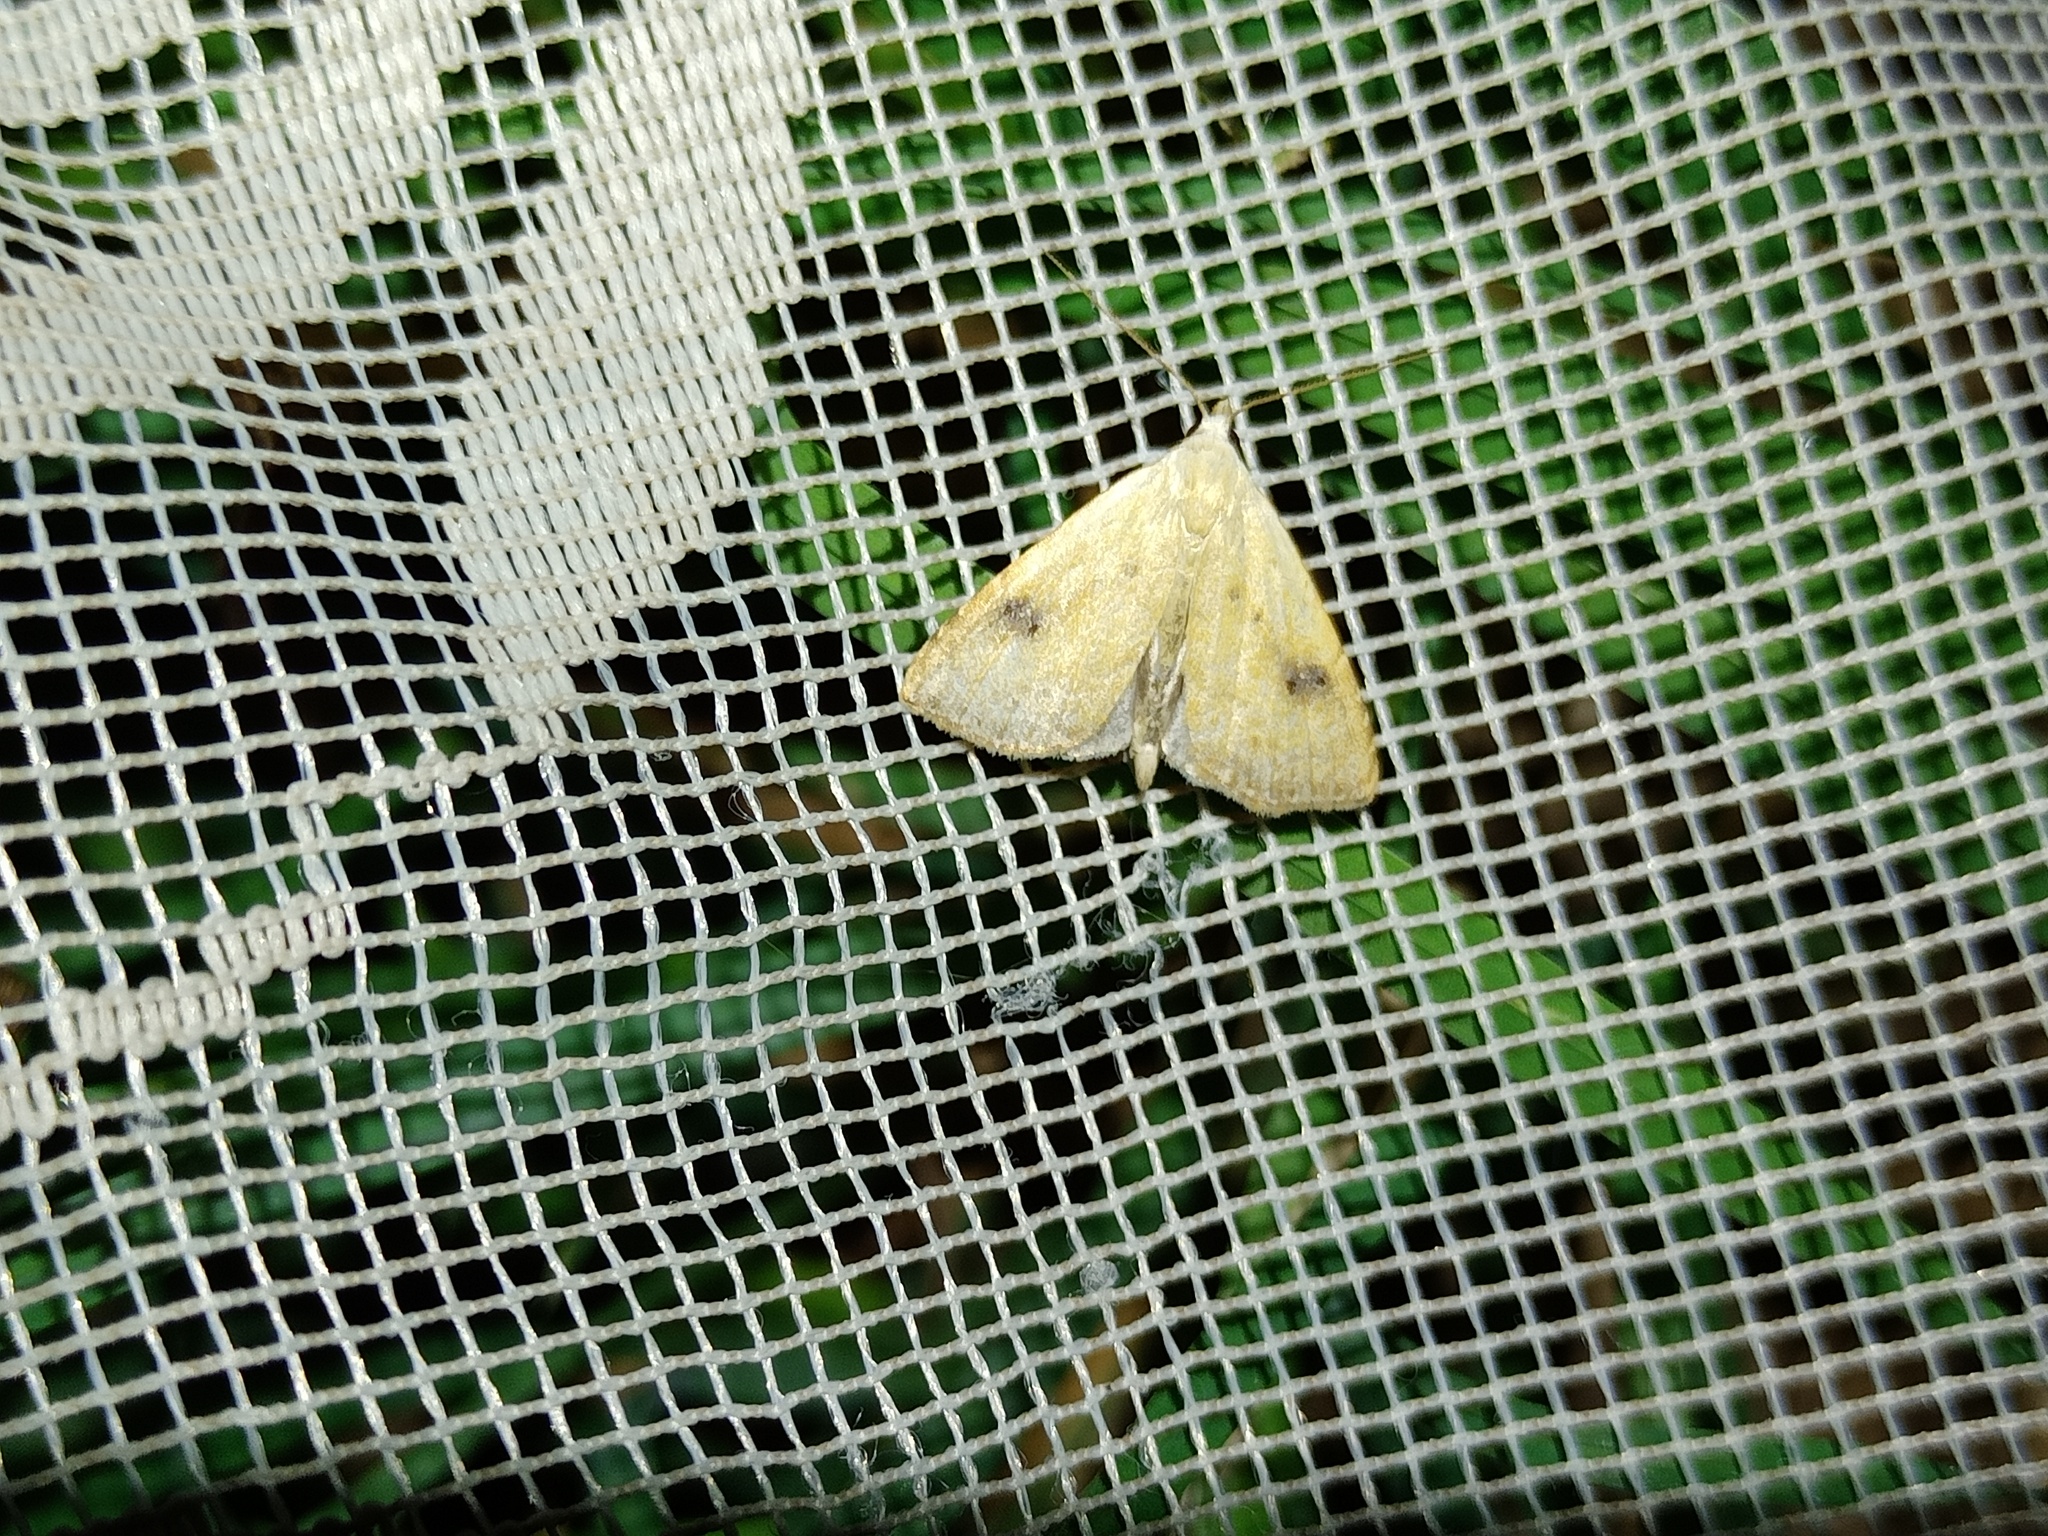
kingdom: Animalia
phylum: Arthropoda
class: Insecta
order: Lepidoptera
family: Erebidae
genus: Rivula
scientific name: Rivula sericealis
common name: Straw dot
